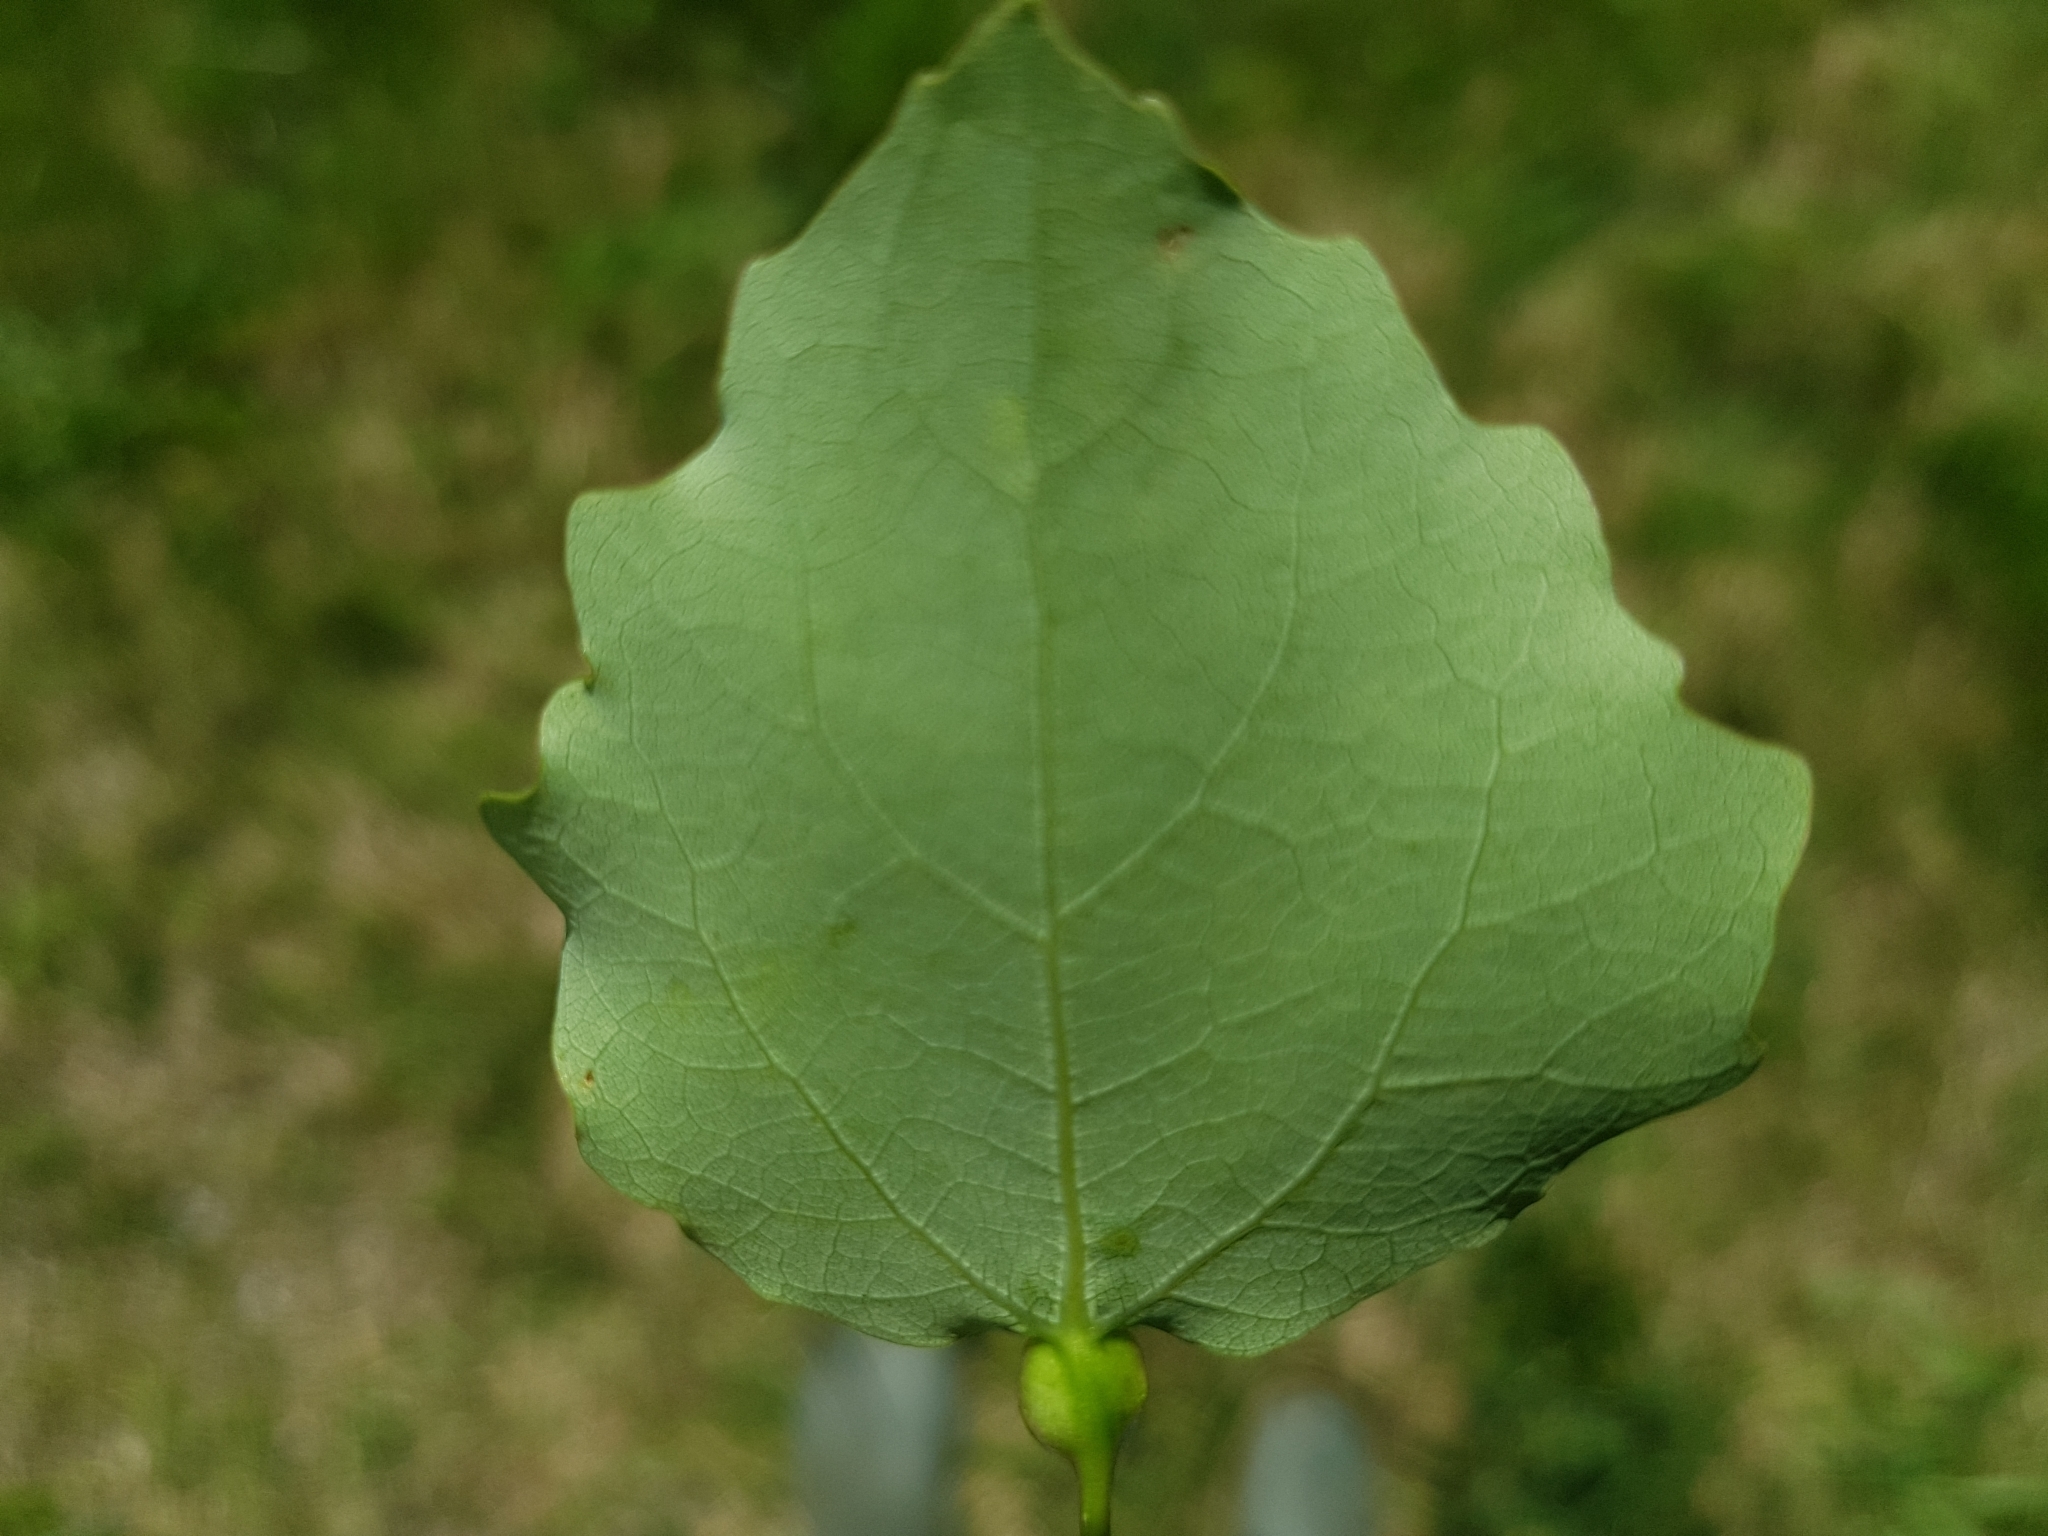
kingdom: Animalia
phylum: Arthropoda
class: Insecta
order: Diptera
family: Cecidomyiidae
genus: Contarinia
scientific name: Contarinia petioli
